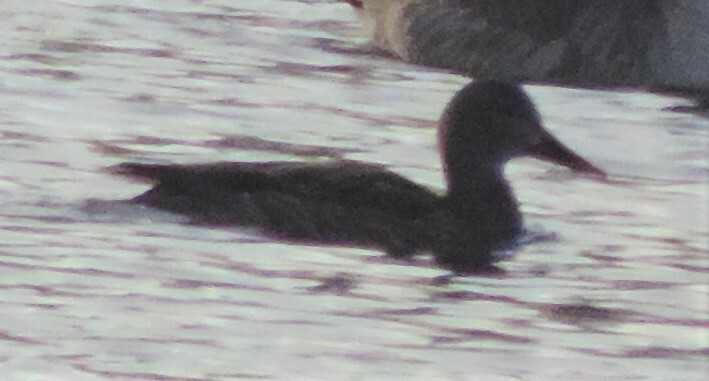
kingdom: Animalia
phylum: Chordata
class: Aves
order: Anseriformes
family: Anatidae
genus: Anas
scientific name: Anas platyrhynchos
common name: Mallard
